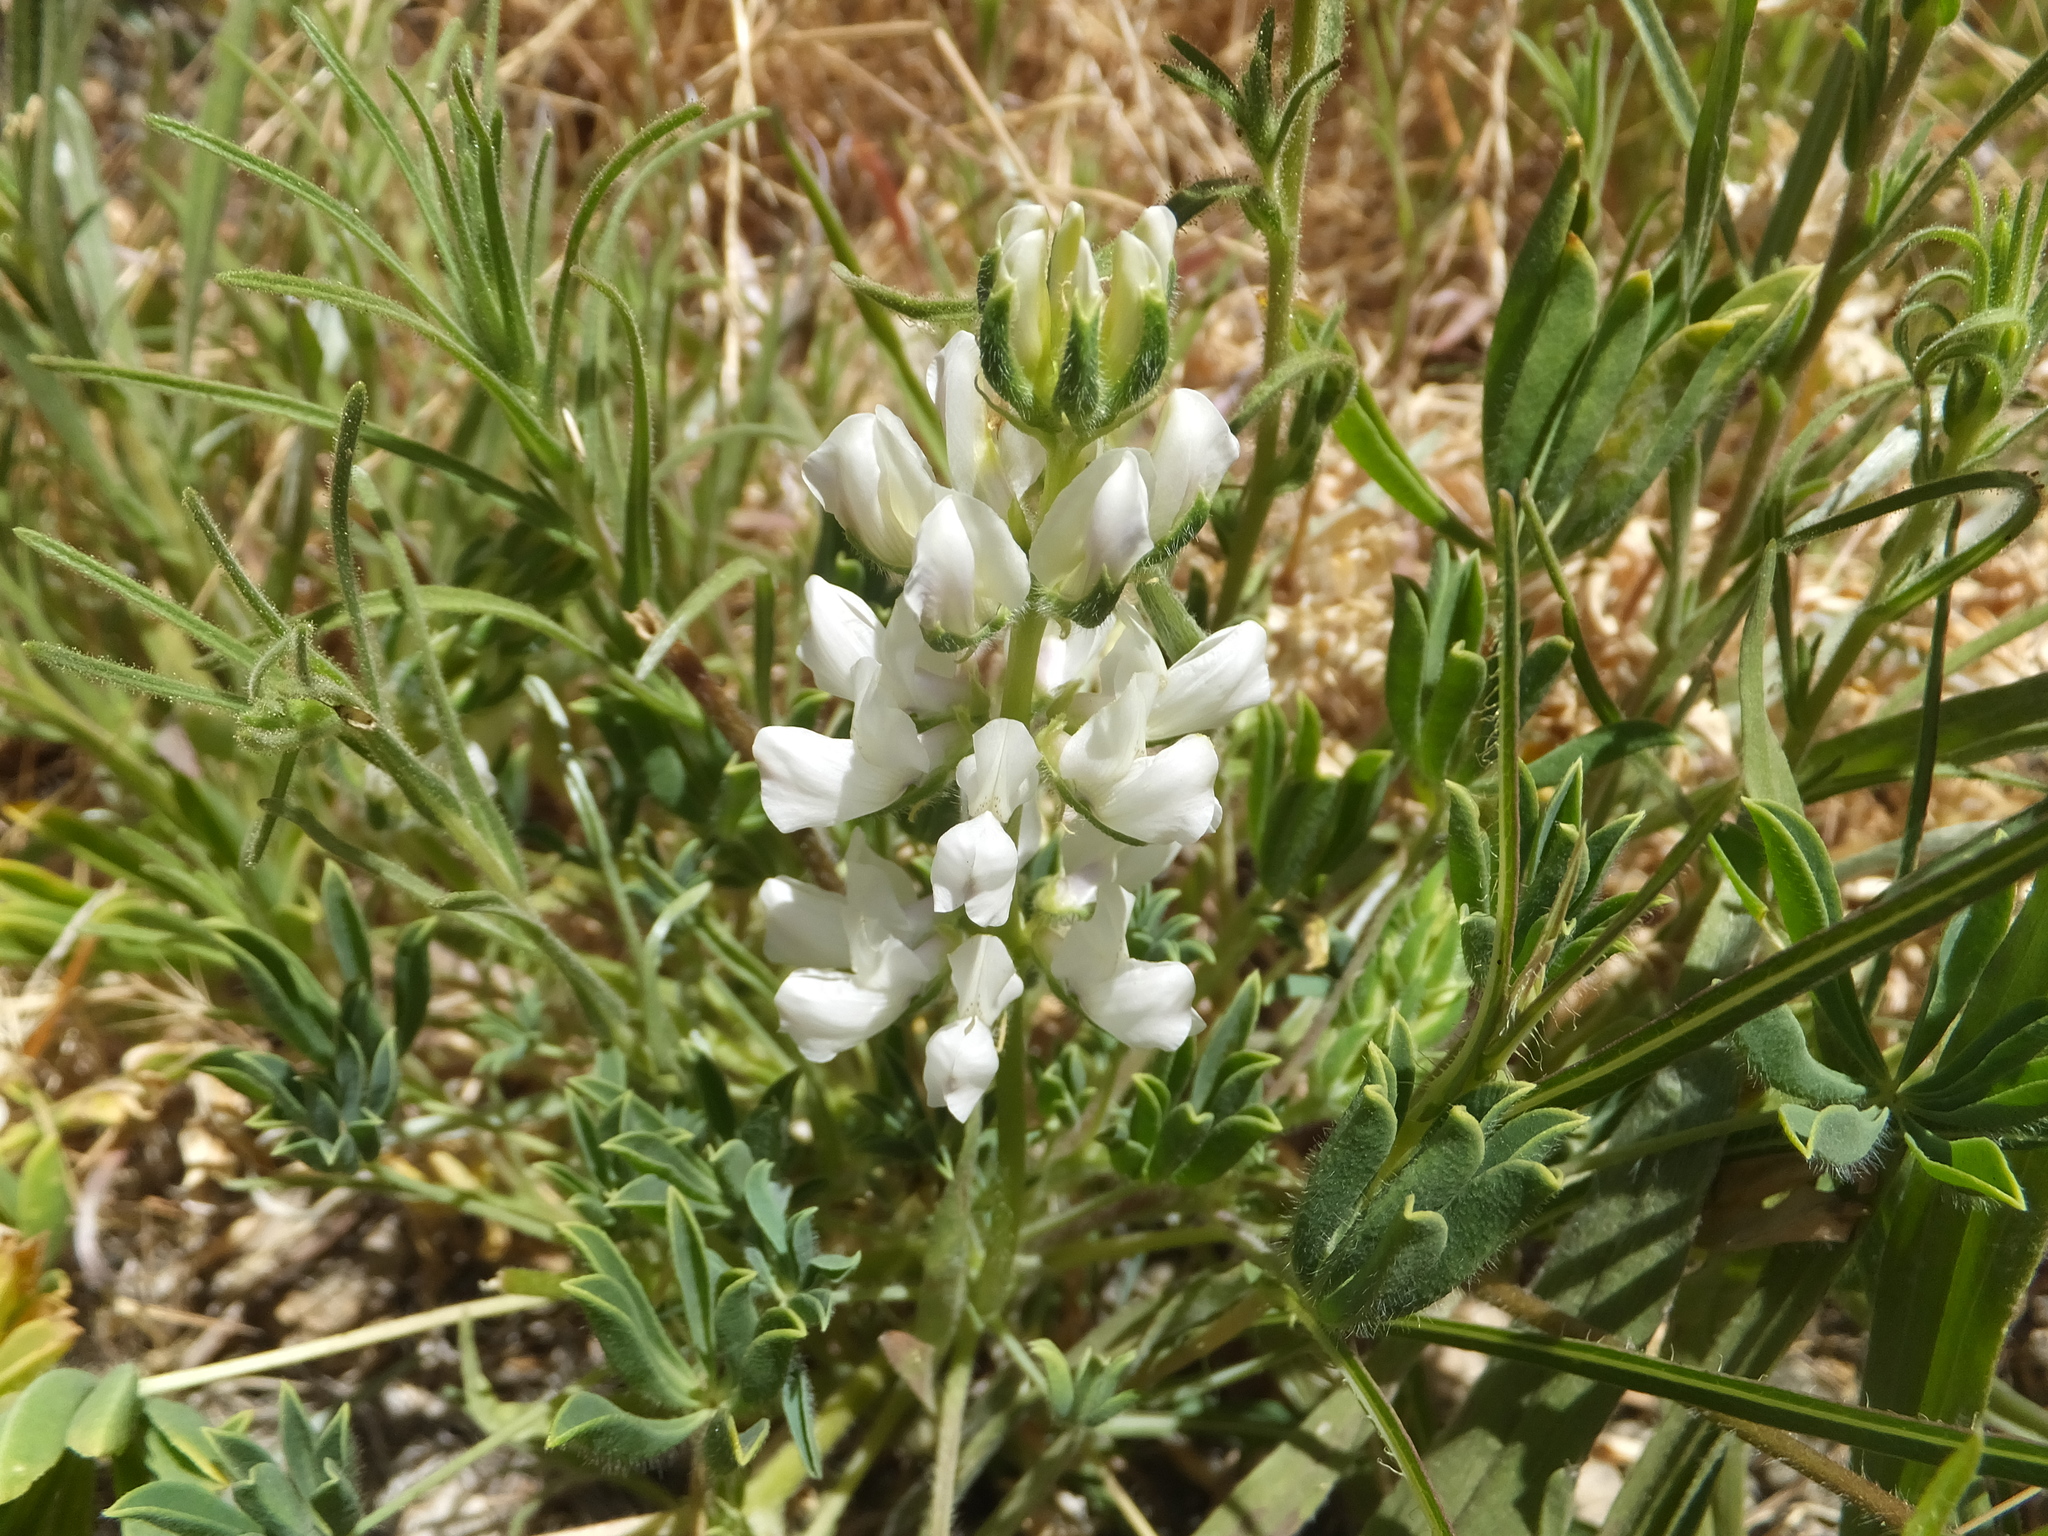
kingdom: Plantae
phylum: Tracheophyta
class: Magnoliopsida
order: Fabales
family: Fabaceae
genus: Lupinus
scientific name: Lupinus densiflorus
